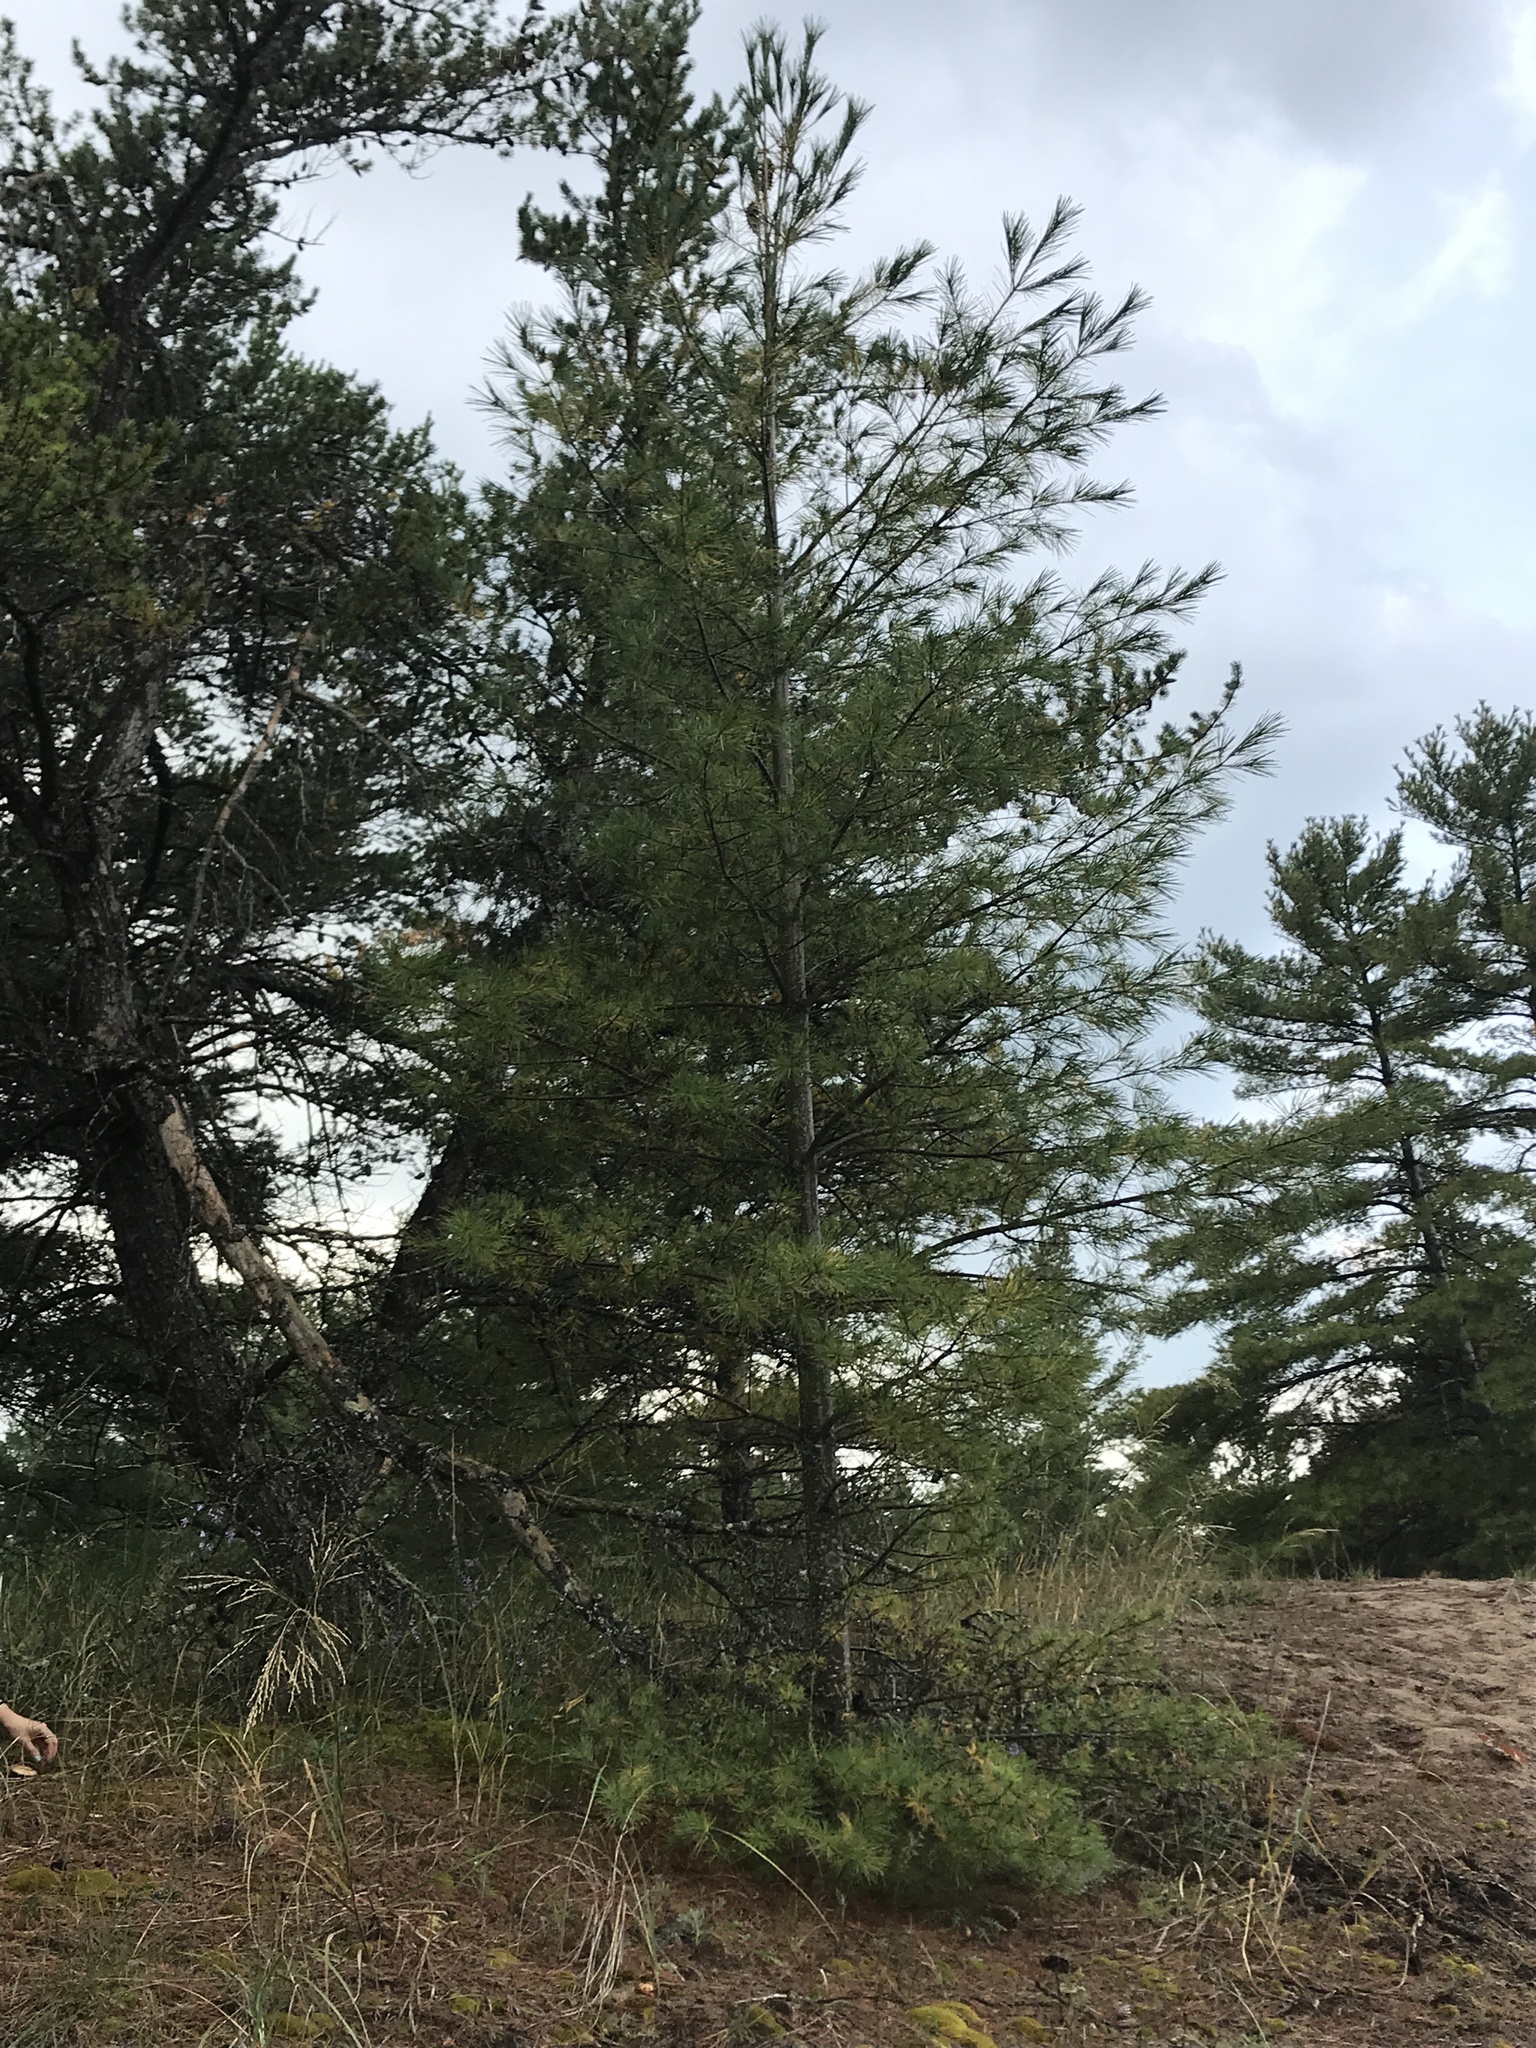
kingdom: Plantae
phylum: Tracheophyta
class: Pinopsida
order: Pinales
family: Pinaceae
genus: Pinus
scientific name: Pinus strobus
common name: Weymouth pine
